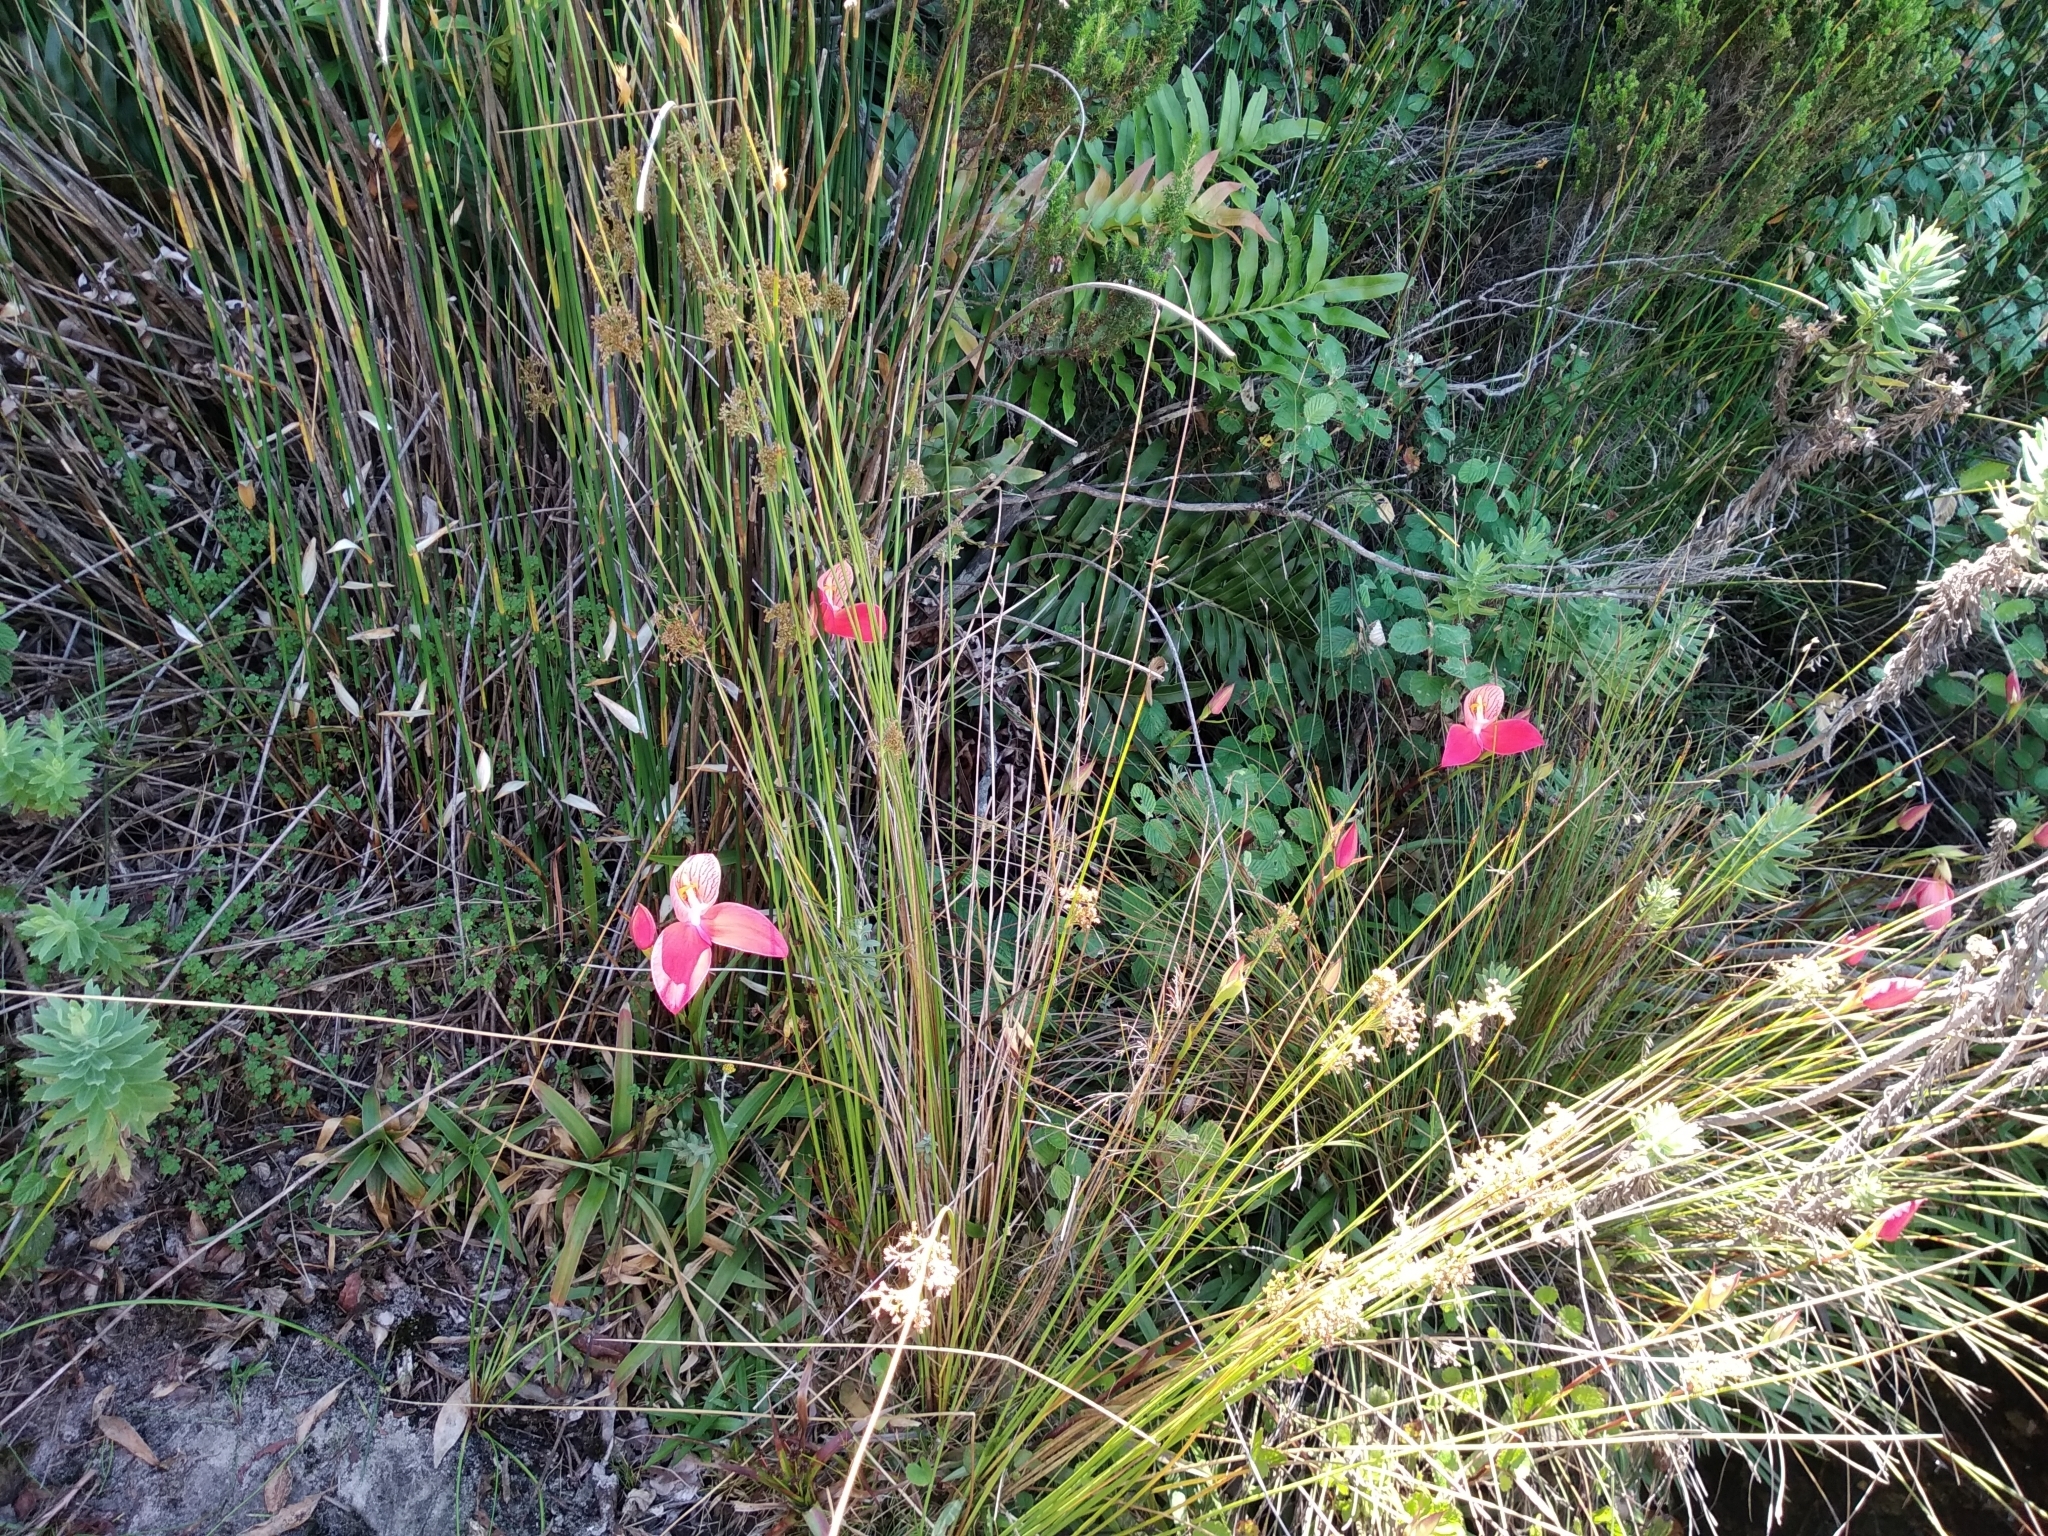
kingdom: Plantae
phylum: Tracheophyta
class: Liliopsida
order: Asparagales
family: Orchidaceae
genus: Disa
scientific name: Disa uniflora
